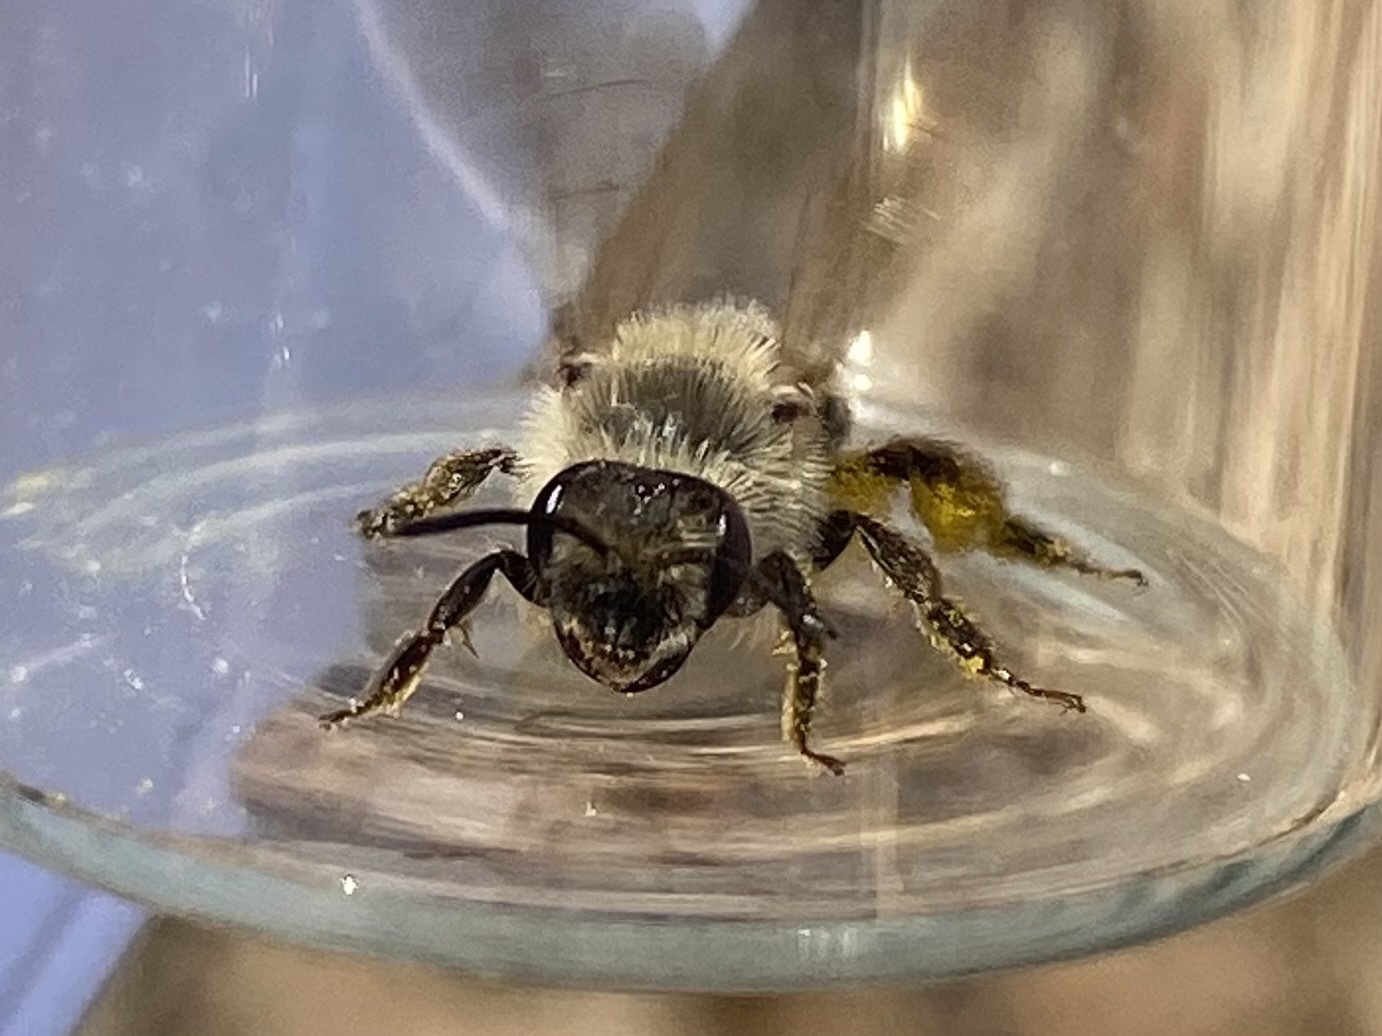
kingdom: Animalia
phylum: Arthropoda
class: Insecta
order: Hymenoptera
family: Andrenidae
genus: Andrena
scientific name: Andrena
